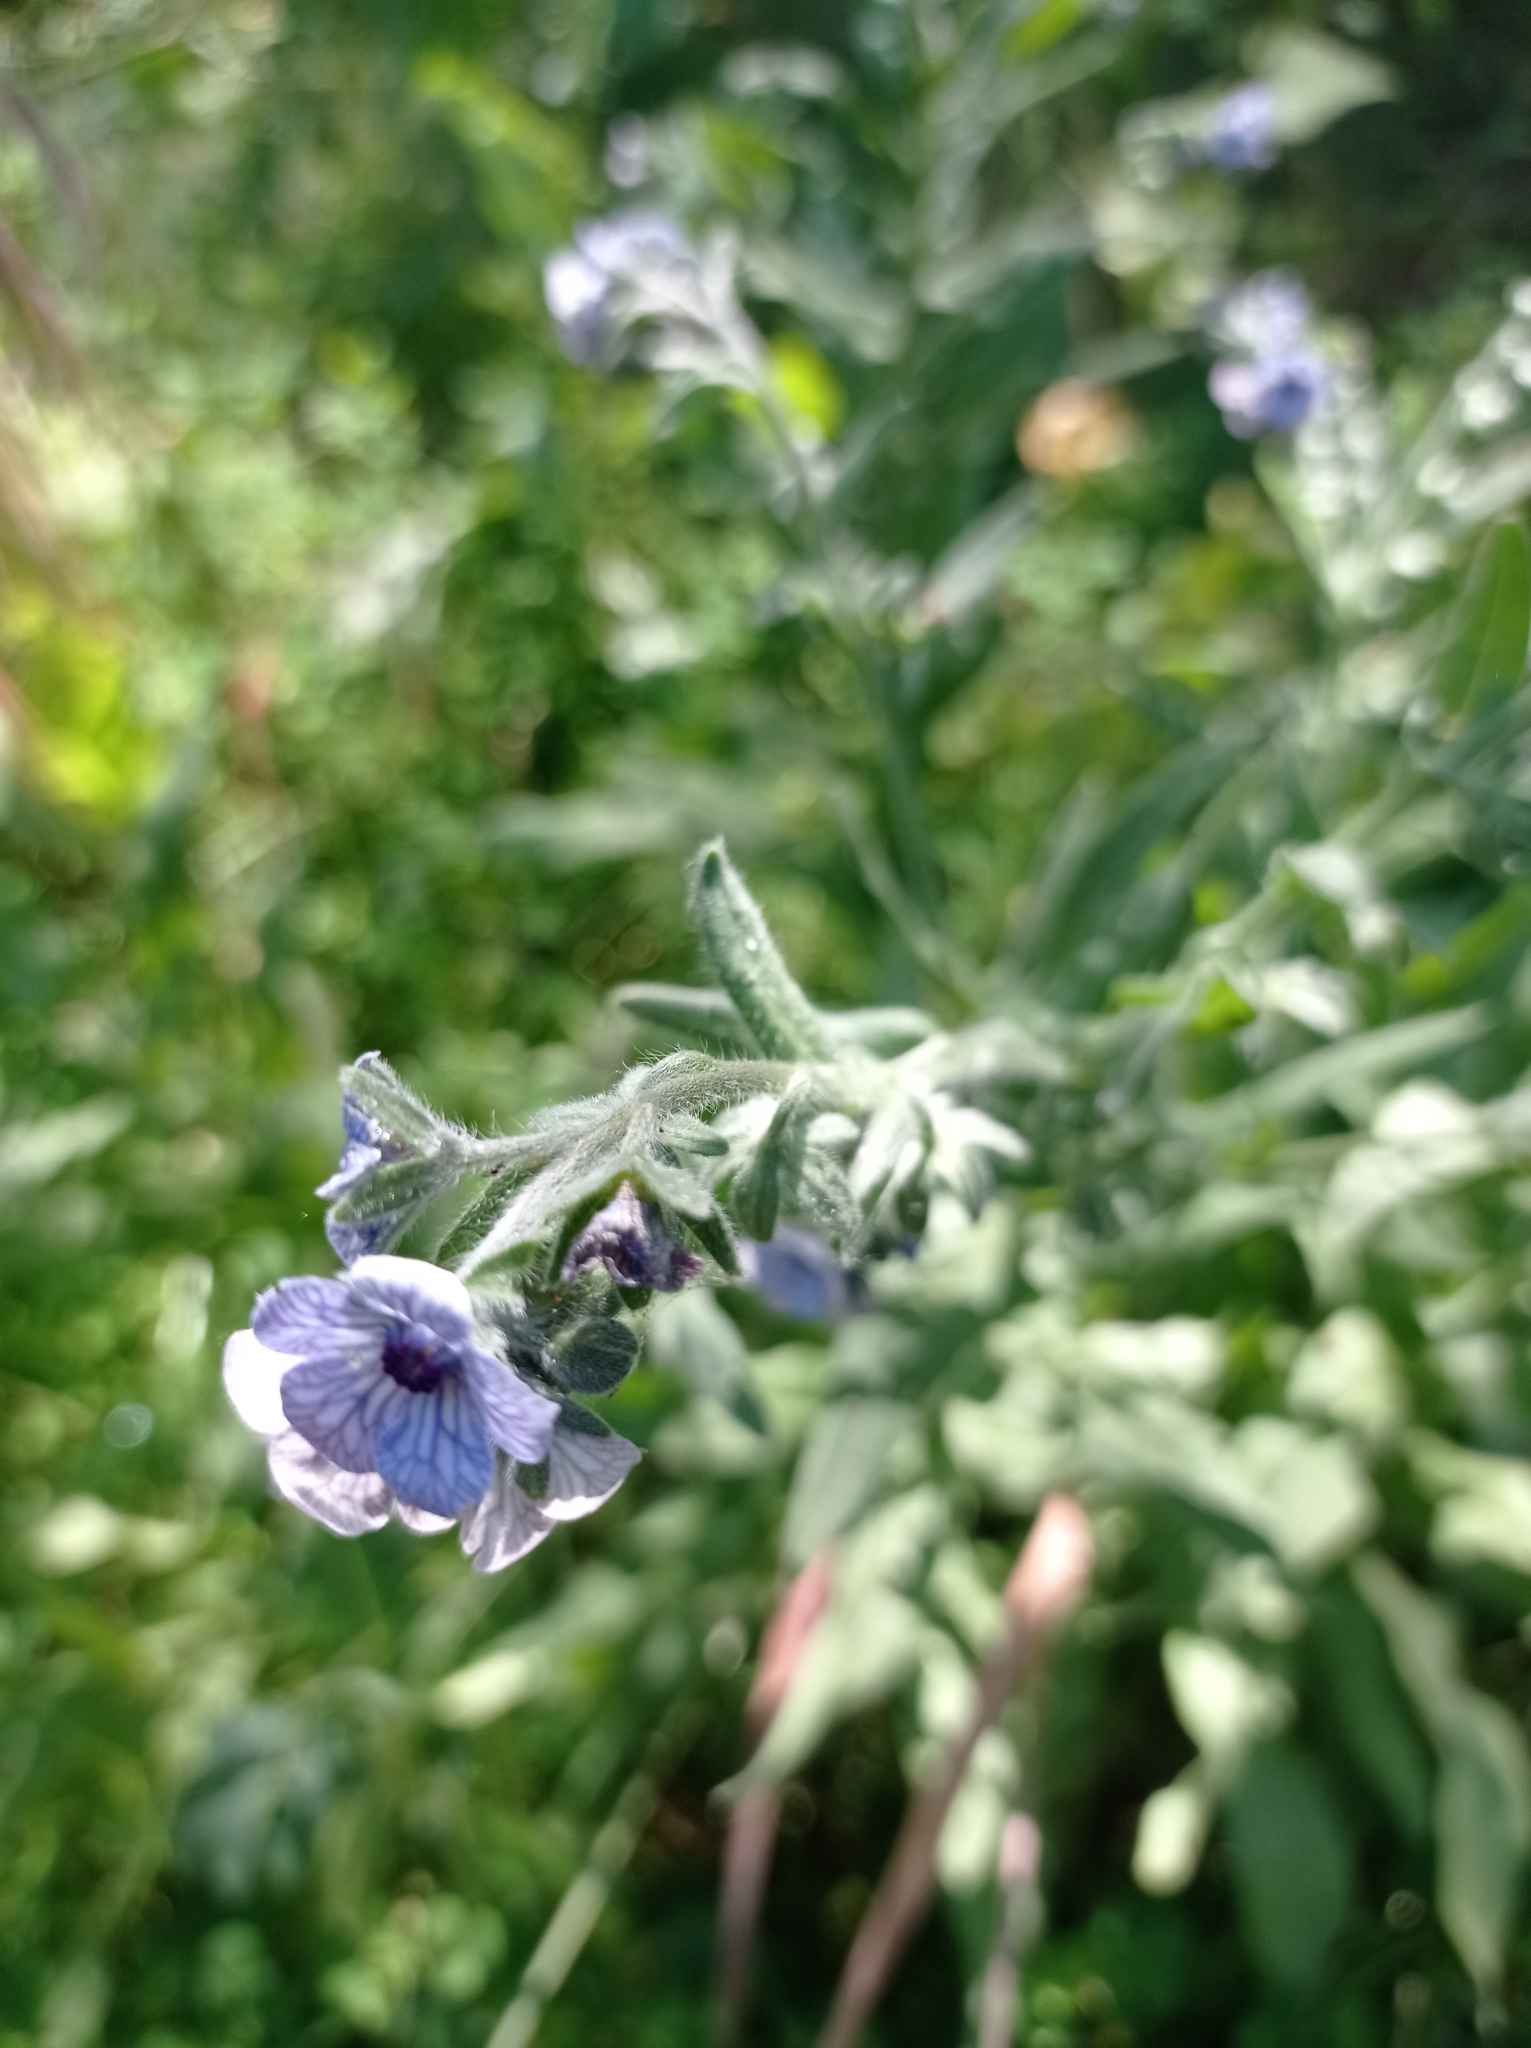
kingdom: Plantae
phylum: Tracheophyta
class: Magnoliopsida
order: Boraginales
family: Boraginaceae
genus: Cynoglossum
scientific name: Cynoglossum creticum
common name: Blue hound's tongue
